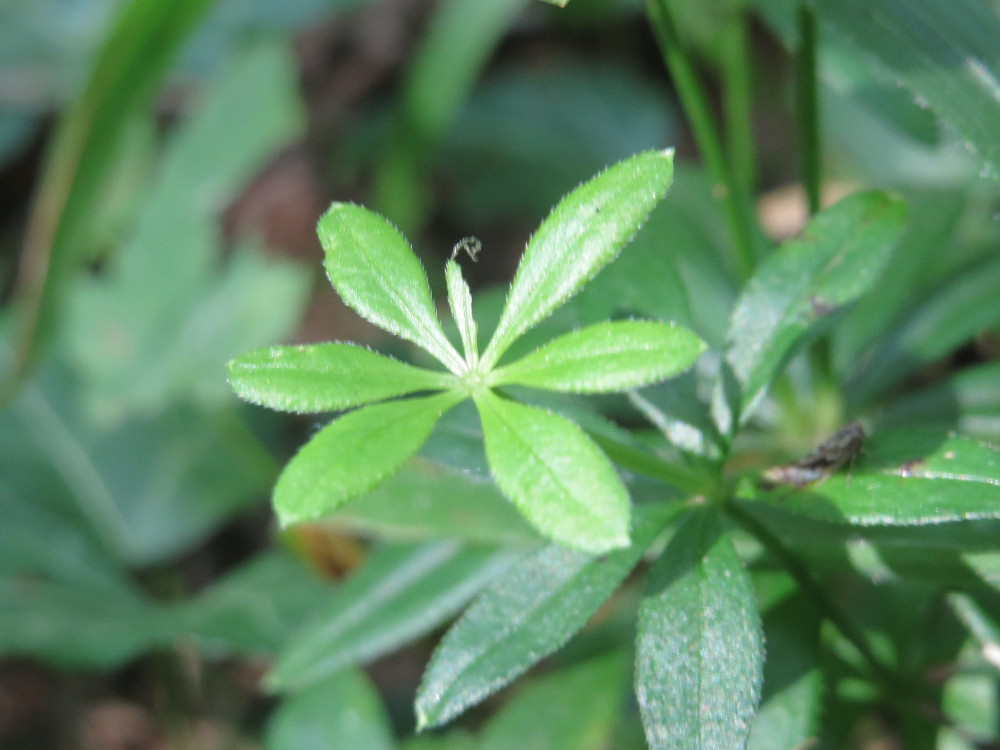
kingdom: Plantae
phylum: Tracheophyta
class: Magnoliopsida
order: Gentianales
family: Rubiaceae
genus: Galium
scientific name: Galium odoratum
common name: Sweet woodruff
